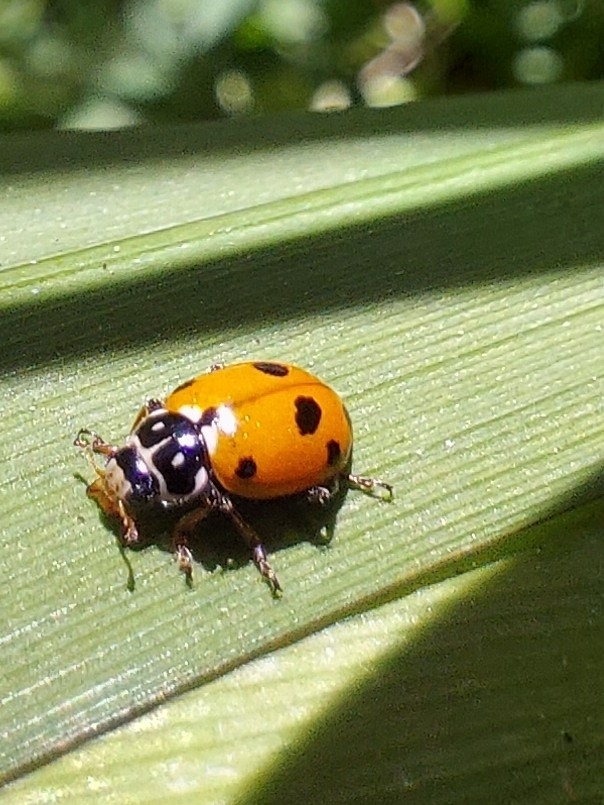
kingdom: Animalia
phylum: Arthropoda
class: Insecta
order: Coleoptera
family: Coccinellidae
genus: Hippodamia
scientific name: Hippodamia variegata
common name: Ladybird beetle
